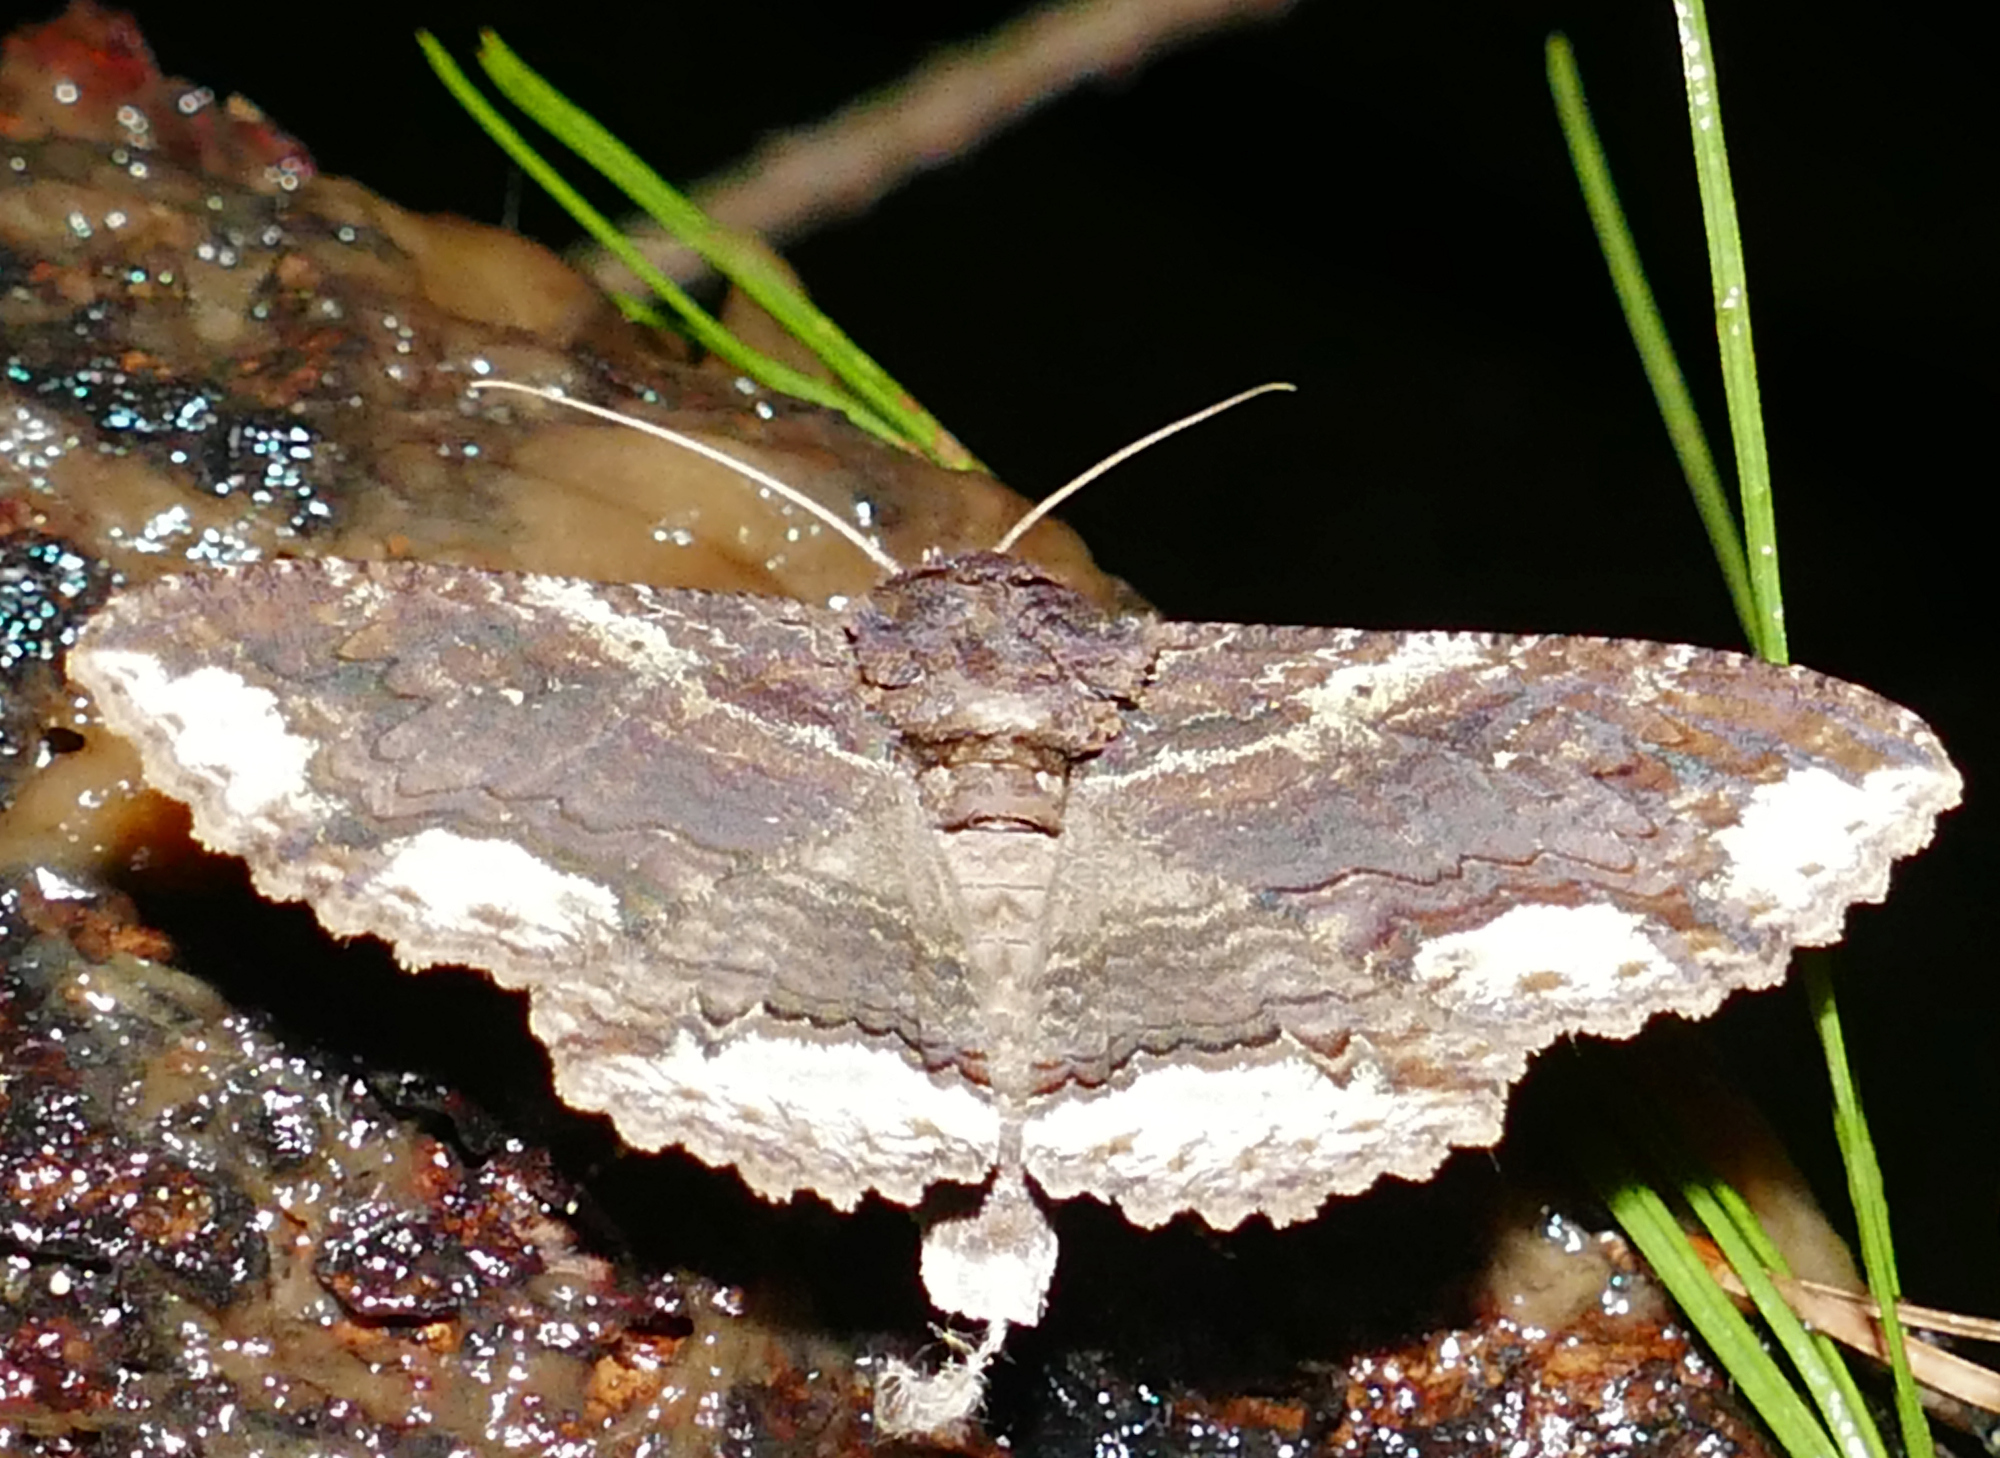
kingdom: Animalia
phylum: Arthropoda
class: Insecta
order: Lepidoptera
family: Erebidae
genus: Zale
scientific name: Zale lunata
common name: Lunate zale moth
